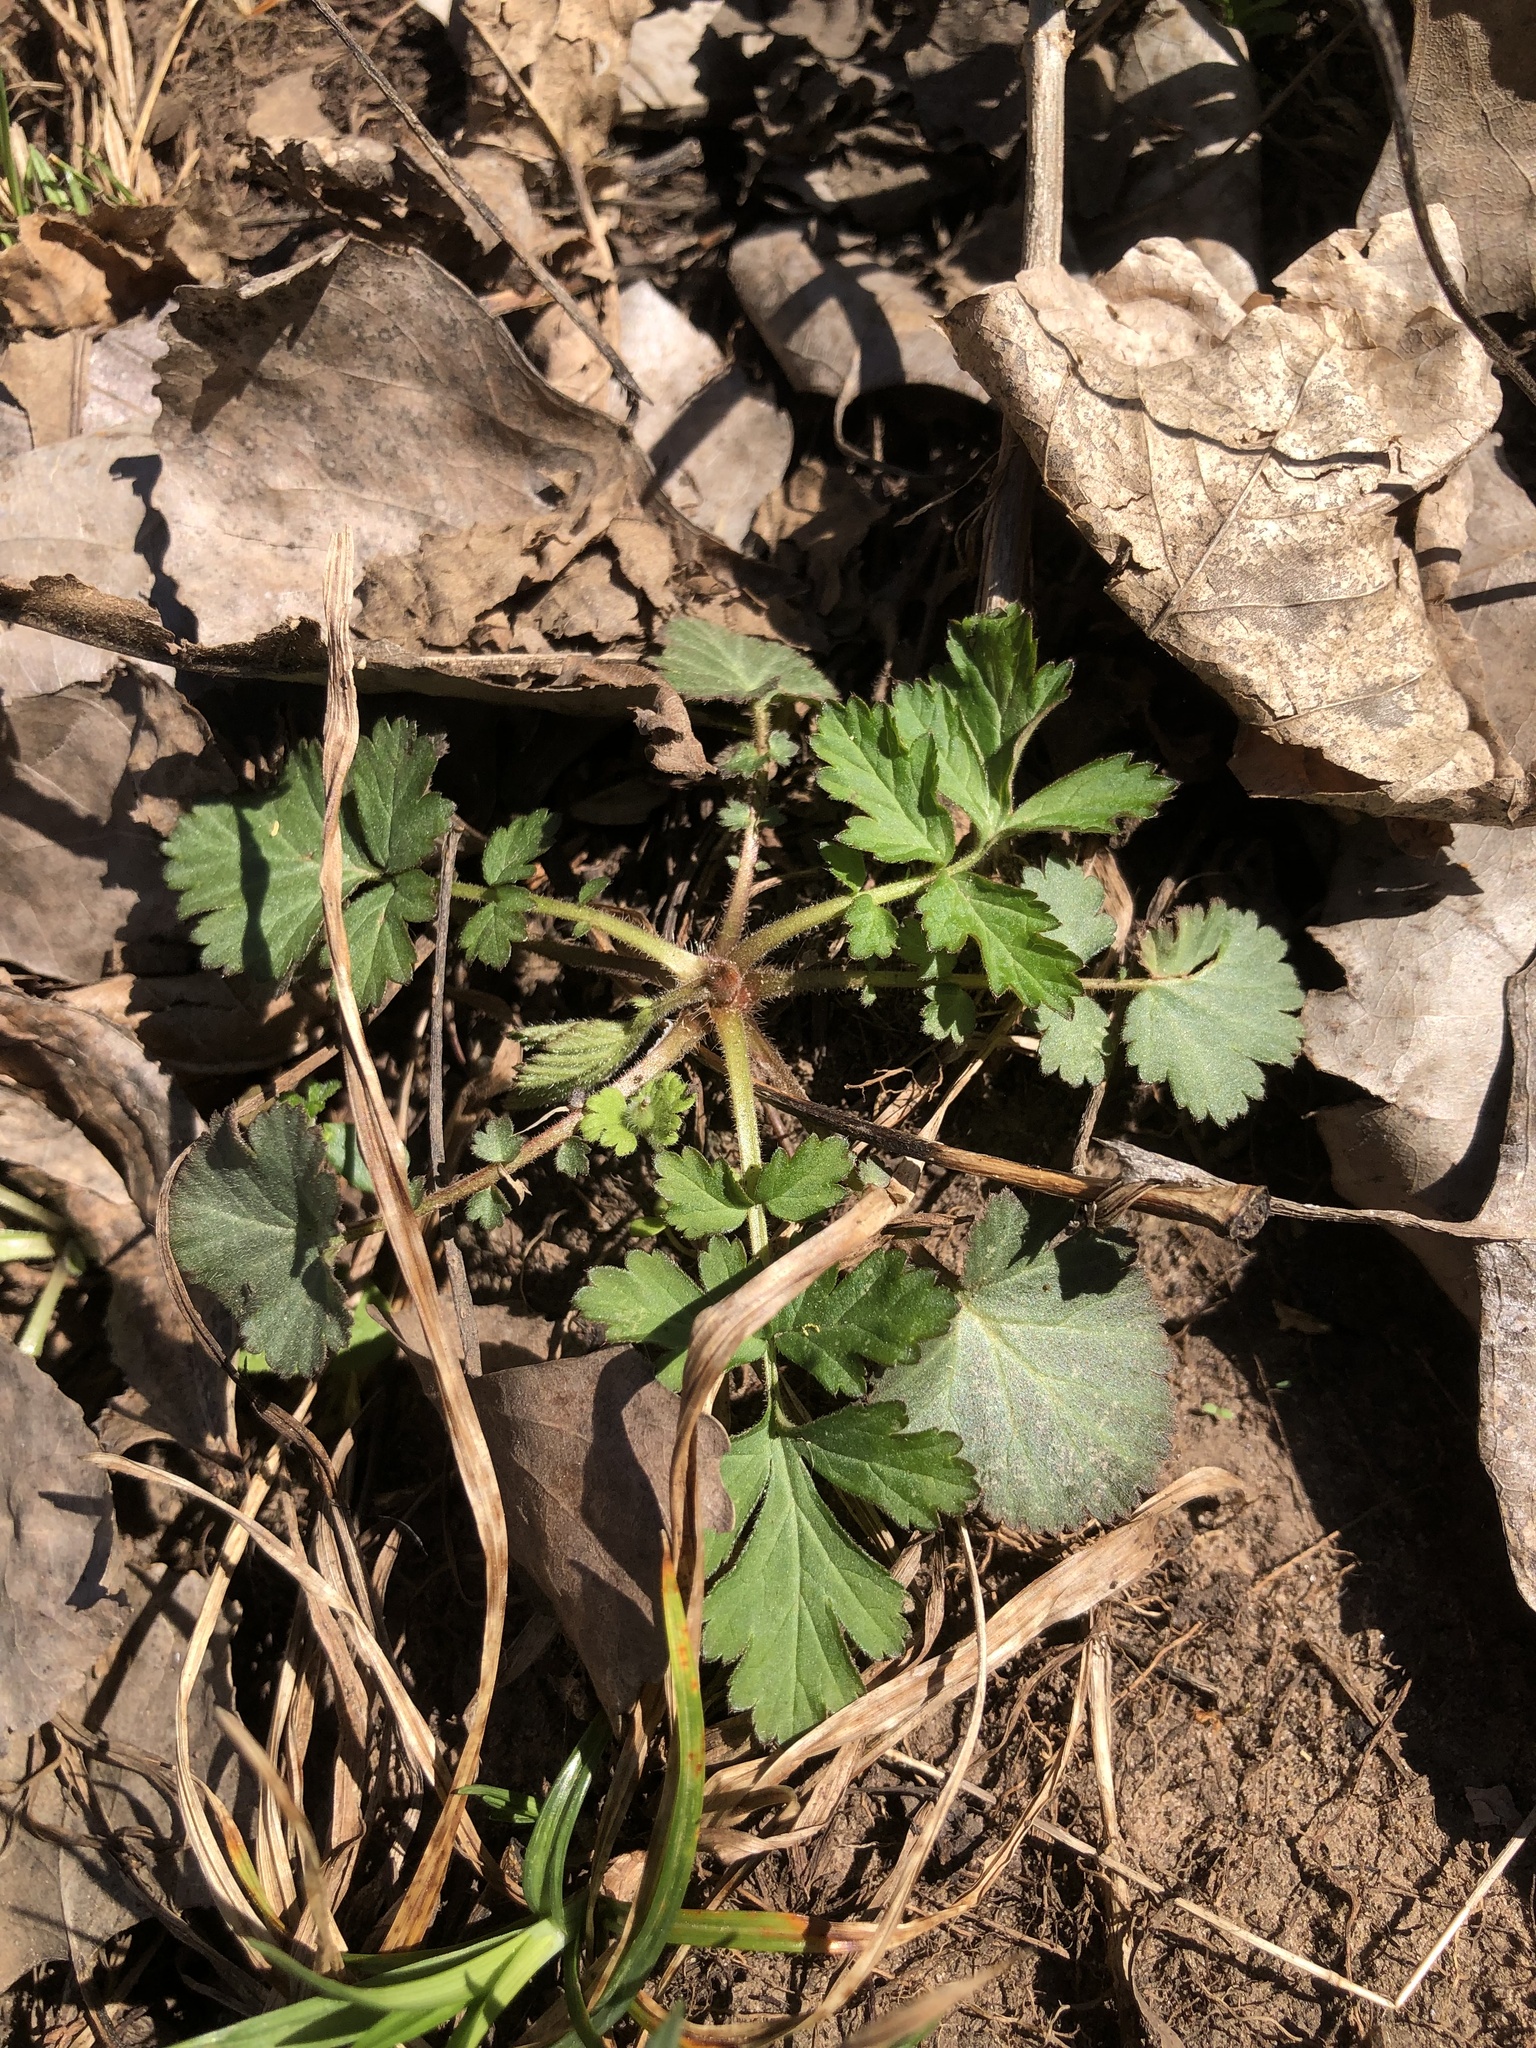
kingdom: Plantae
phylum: Tracheophyta
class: Magnoliopsida
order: Rosales
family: Rosaceae
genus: Geum
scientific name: Geum canadense
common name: White avens
